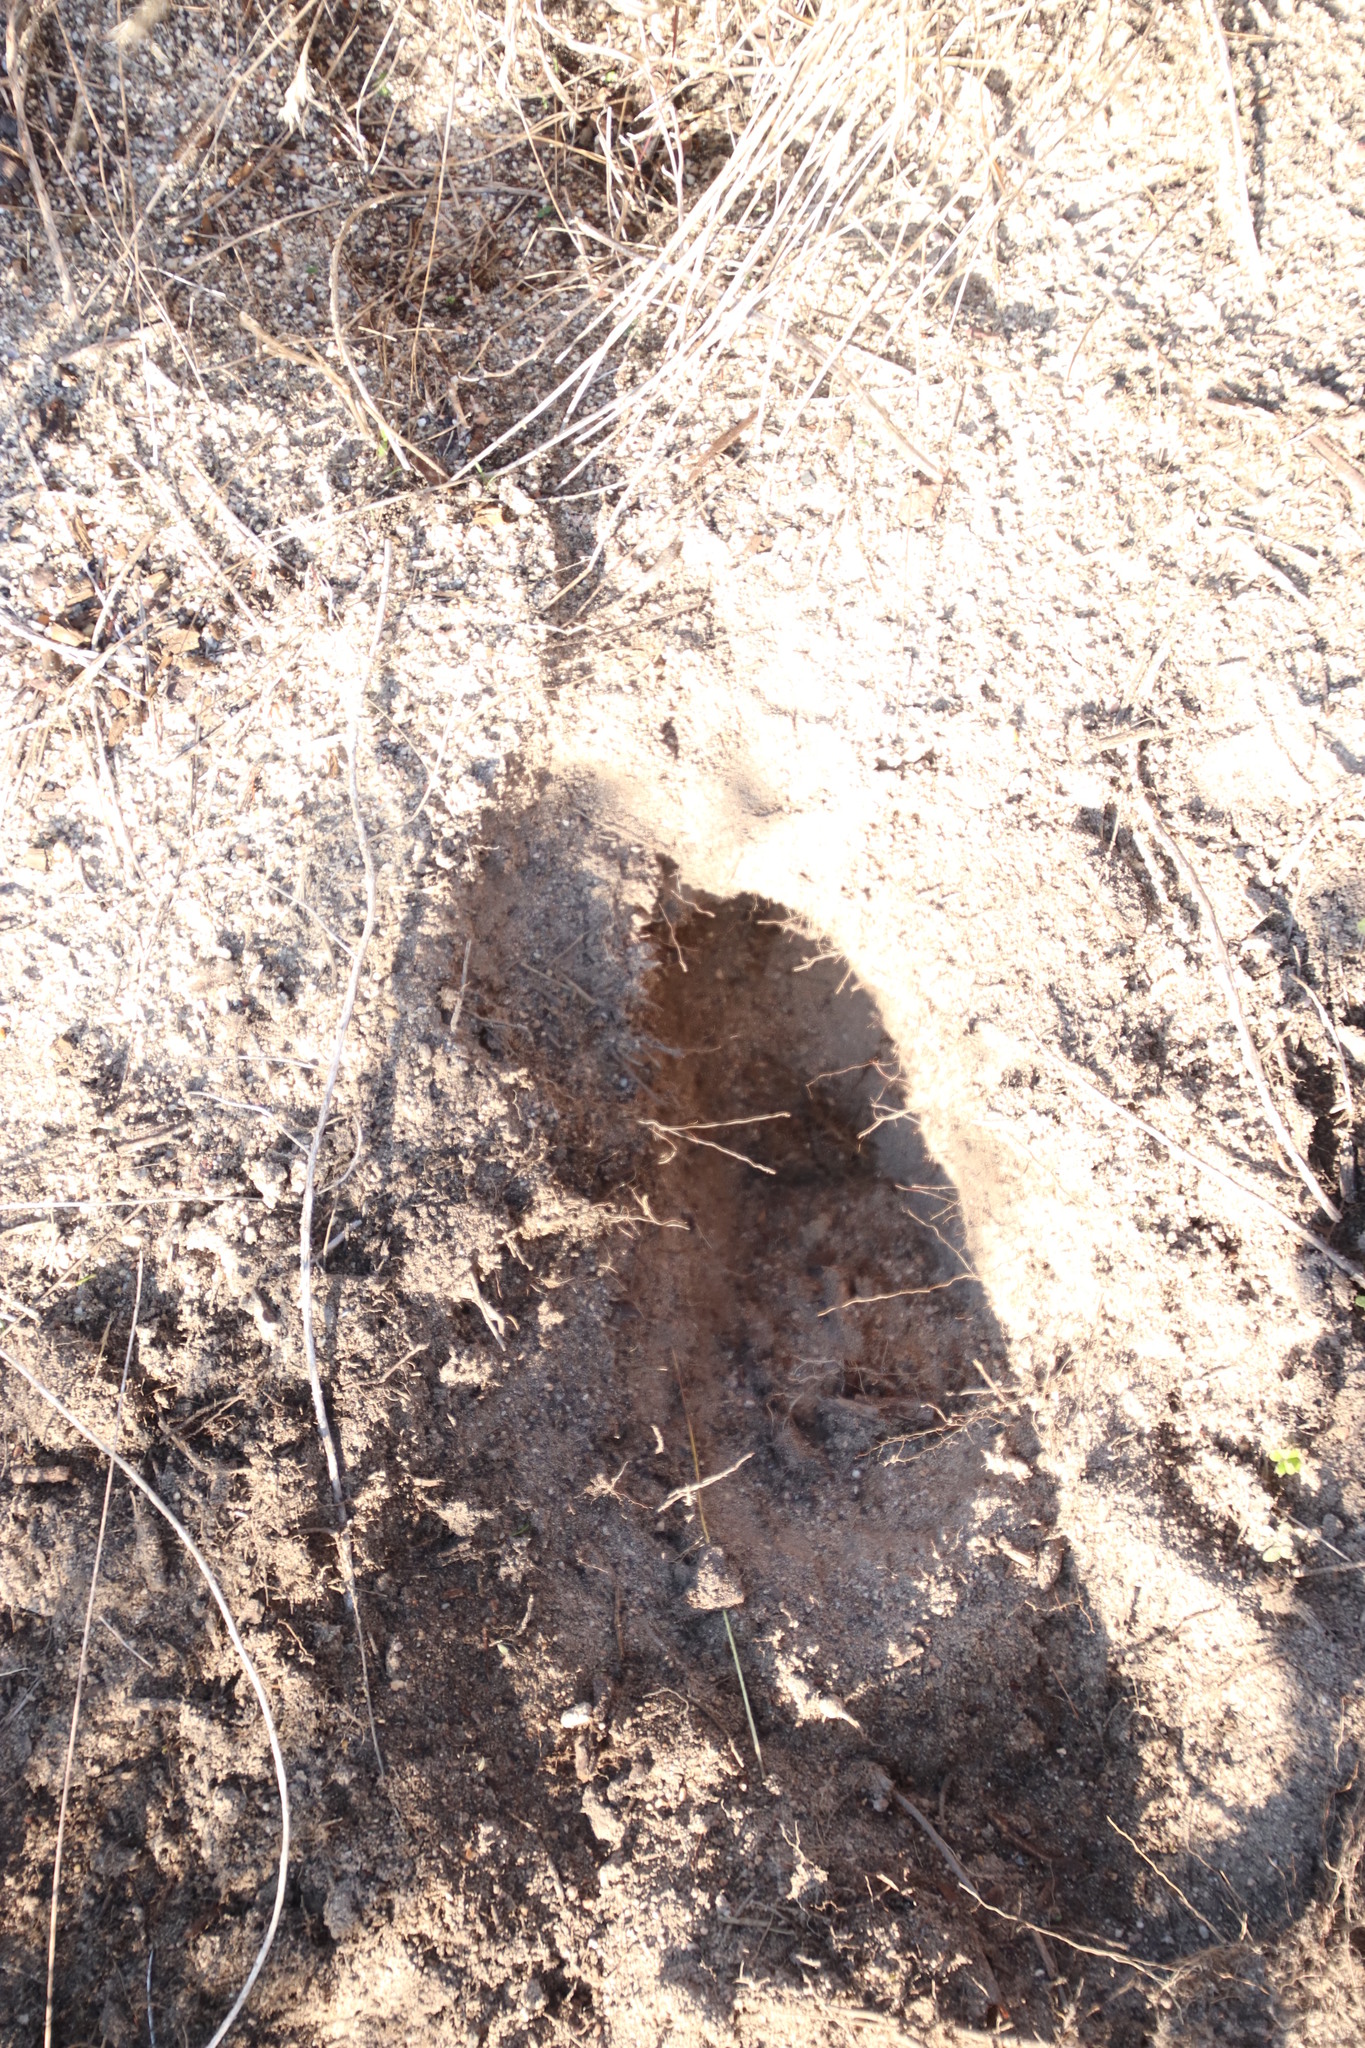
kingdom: Animalia
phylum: Chordata
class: Mammalia
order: Primates
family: Cercopithecidae
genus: Papio
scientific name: Papio ursinus
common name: Chacma baboon
